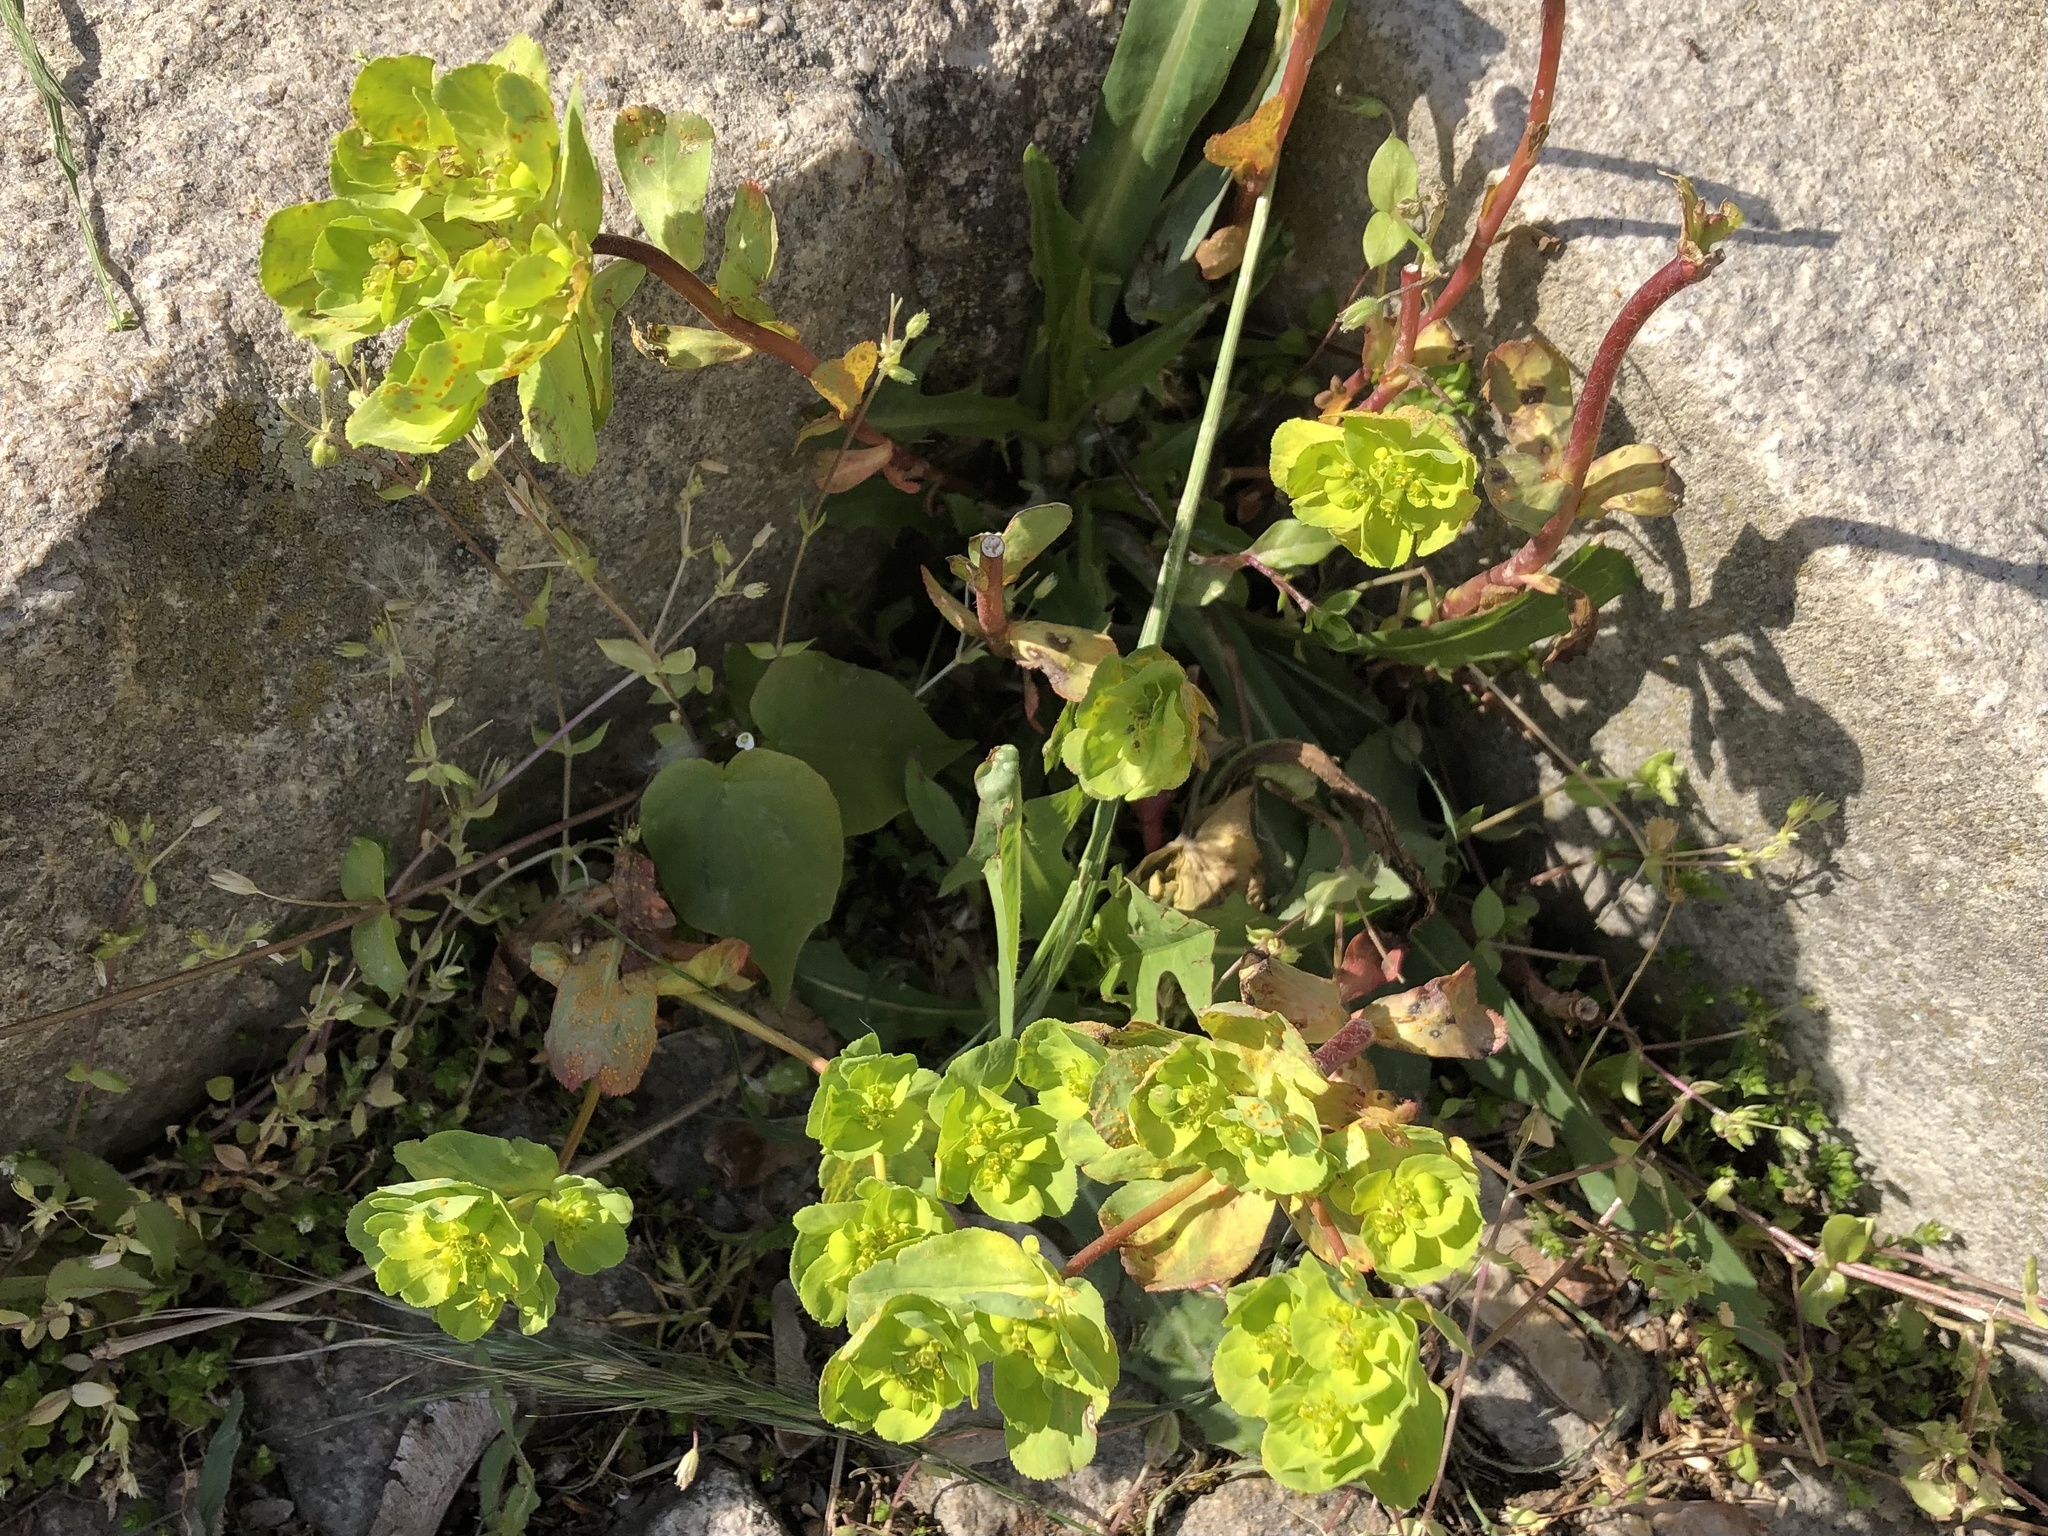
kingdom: Plantae
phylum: Tracheophyta
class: Magnoliopsida
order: Malpighiales
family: Euphorbiaceae
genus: Euphorbia
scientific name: Euphorbia helioscopia
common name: Sun spurge
